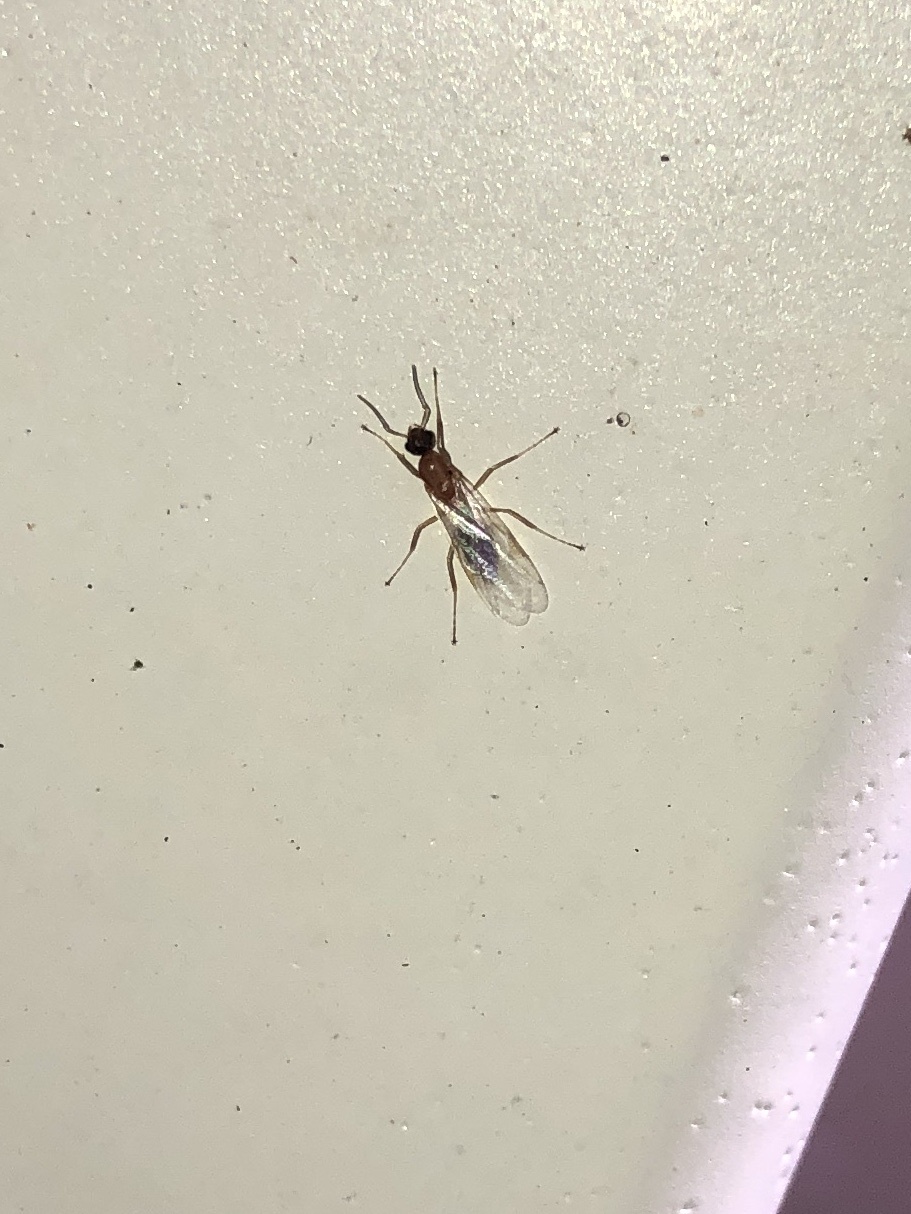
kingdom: Animalia
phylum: Arthropoda
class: Insecta
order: Hymenoptera
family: Formicidae
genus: Camponotus
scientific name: Camponotus truncatus
